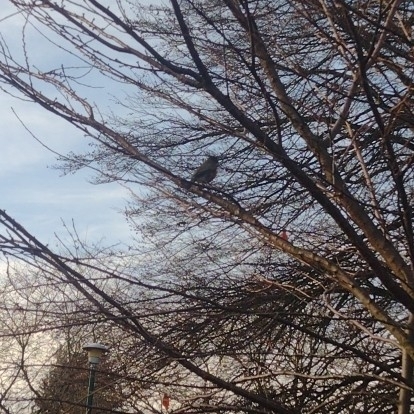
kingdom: Animalia
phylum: Chordata
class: Aves
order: Passeriformes
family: Turdidae
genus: Turdus
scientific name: Turdus migratorius
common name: American robin
